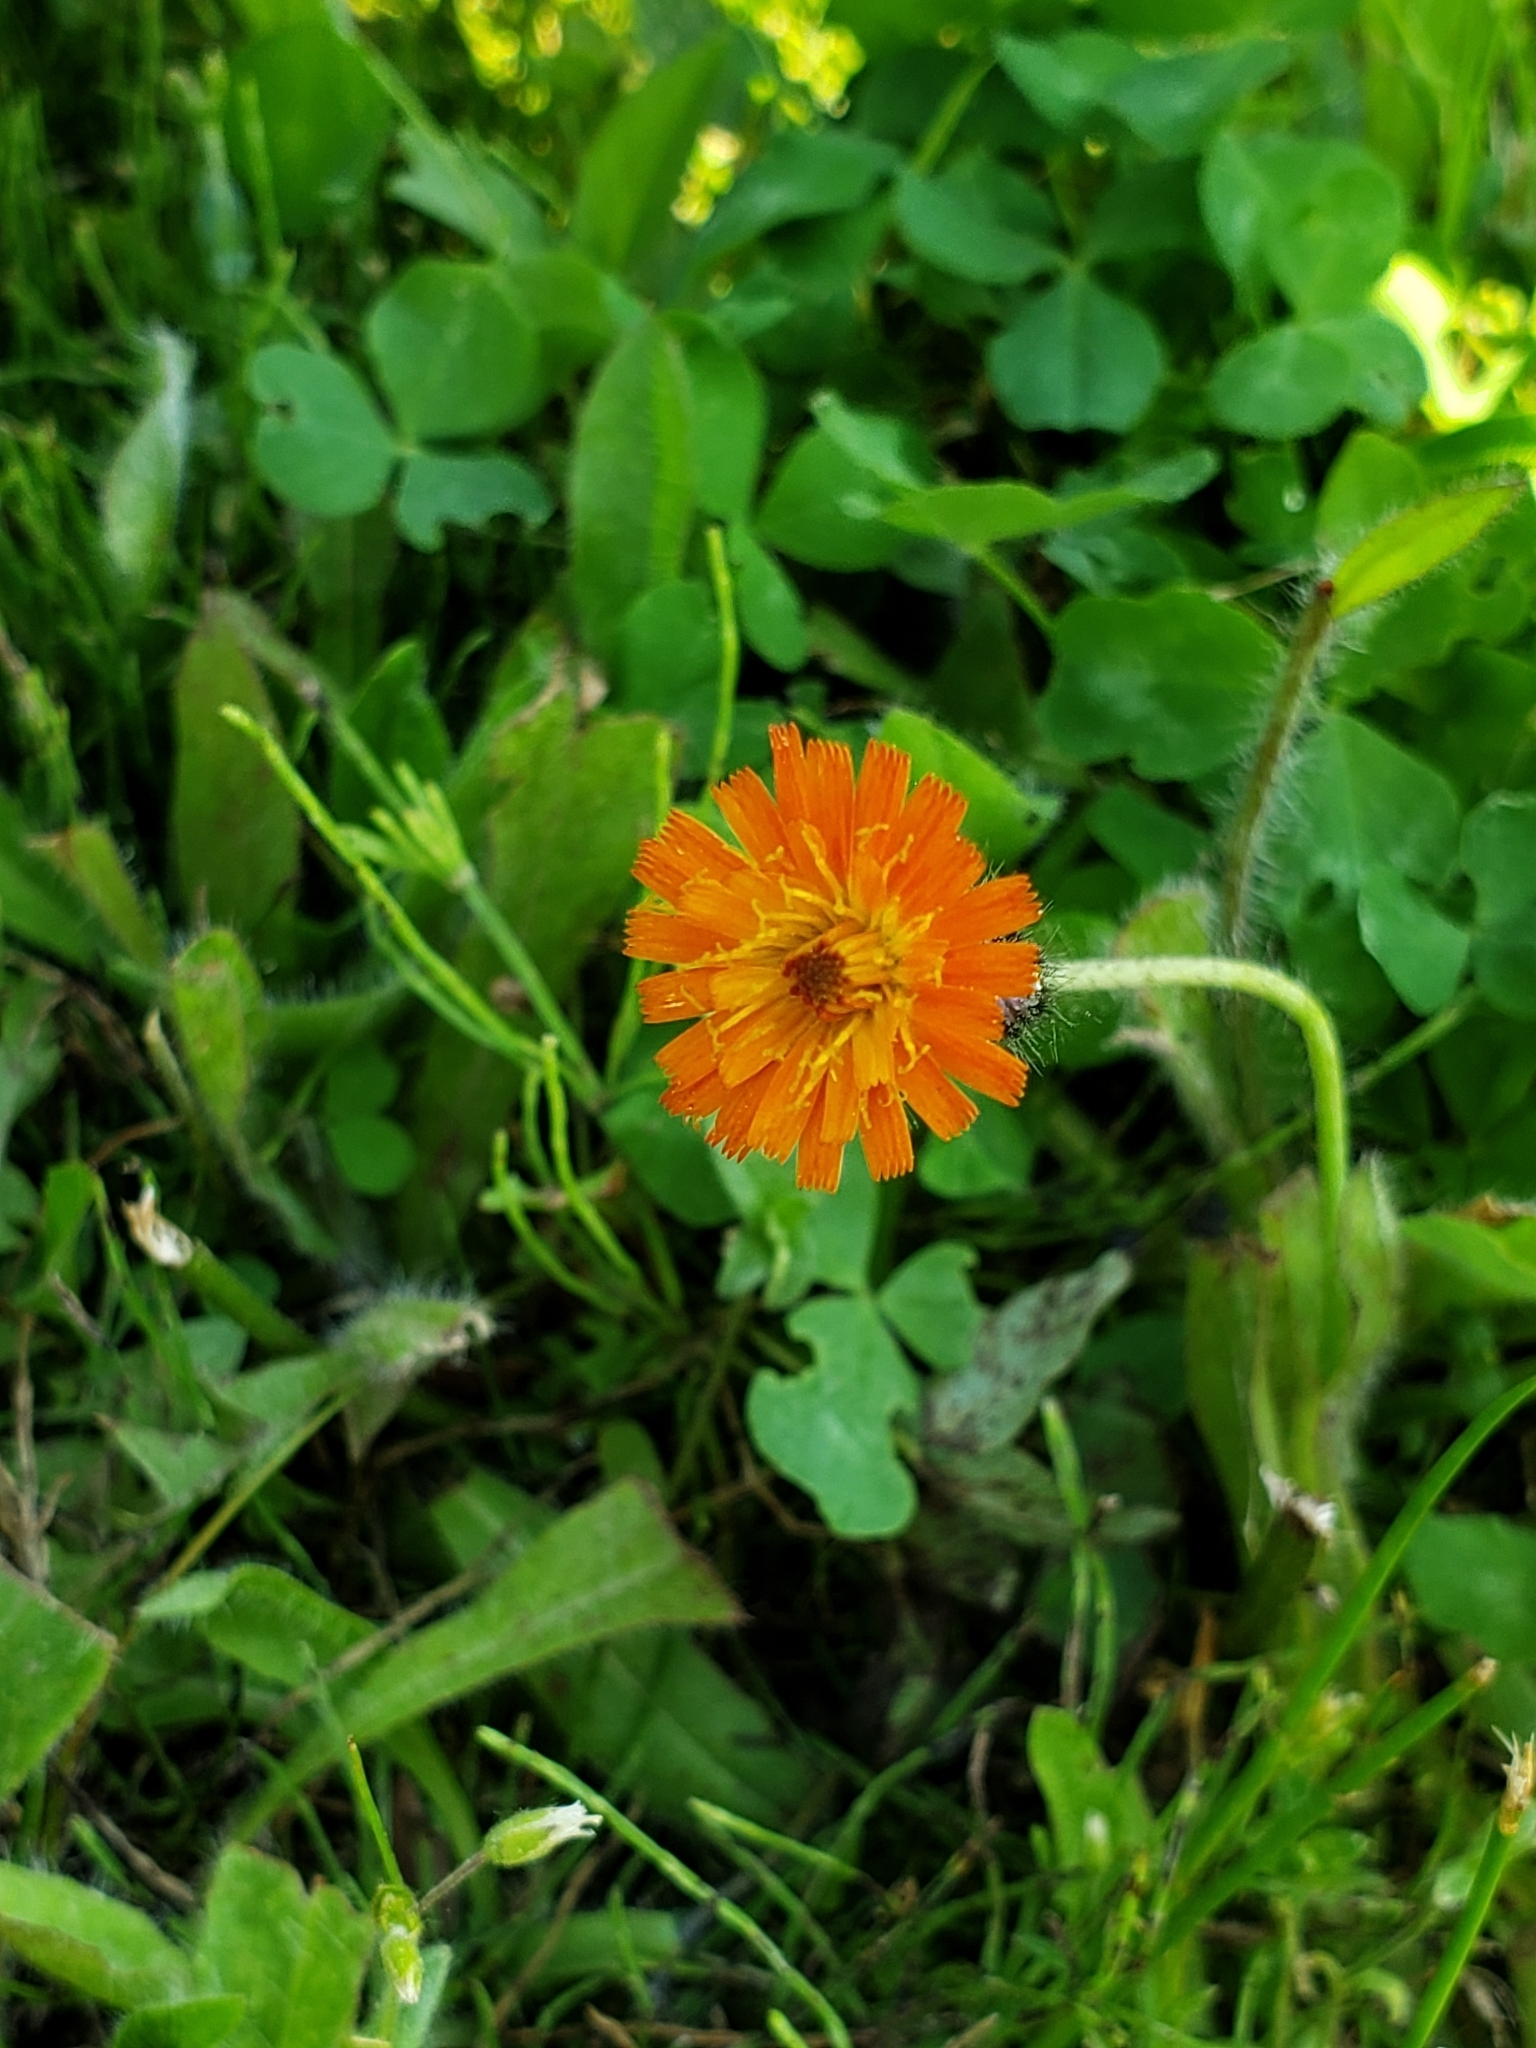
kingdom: Plantae
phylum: Tracheophyta
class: Magnoliopsida
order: Asterales
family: Asteraceae
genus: Pilosella
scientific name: Pilosella aurantiaca
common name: Fox-and-cubs
